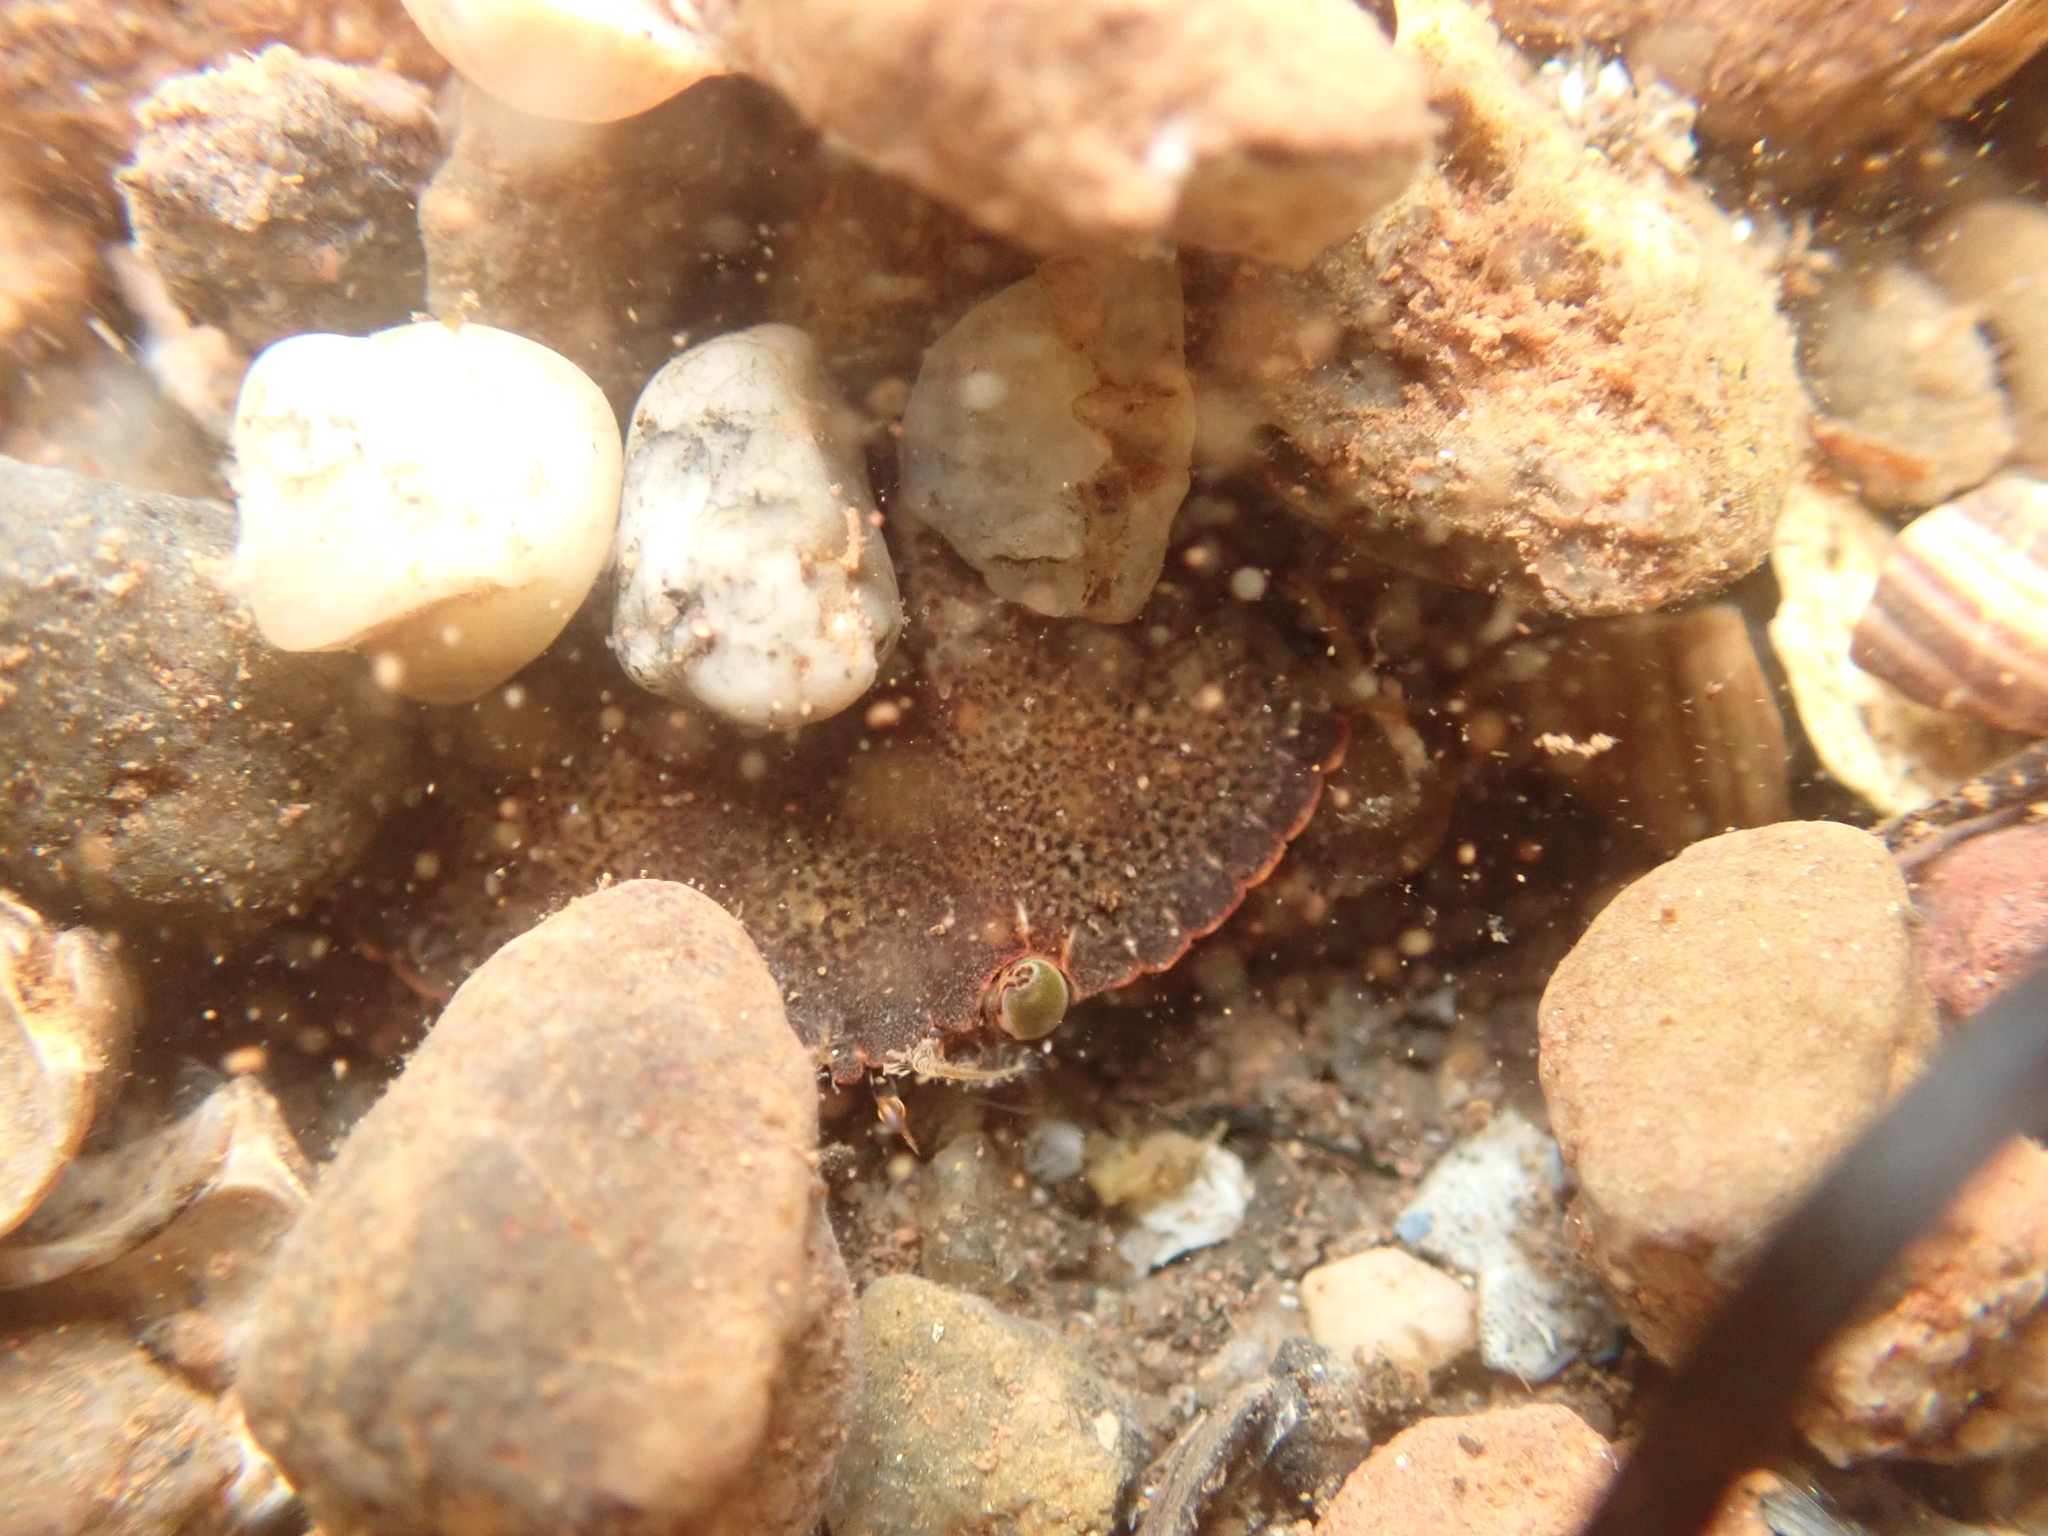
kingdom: Animalia
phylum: Arthropoda
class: Malacostraca
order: Decapoda
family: Cancridae
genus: Cancer
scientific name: Cancer irroratus
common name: Atlantic rock crab
